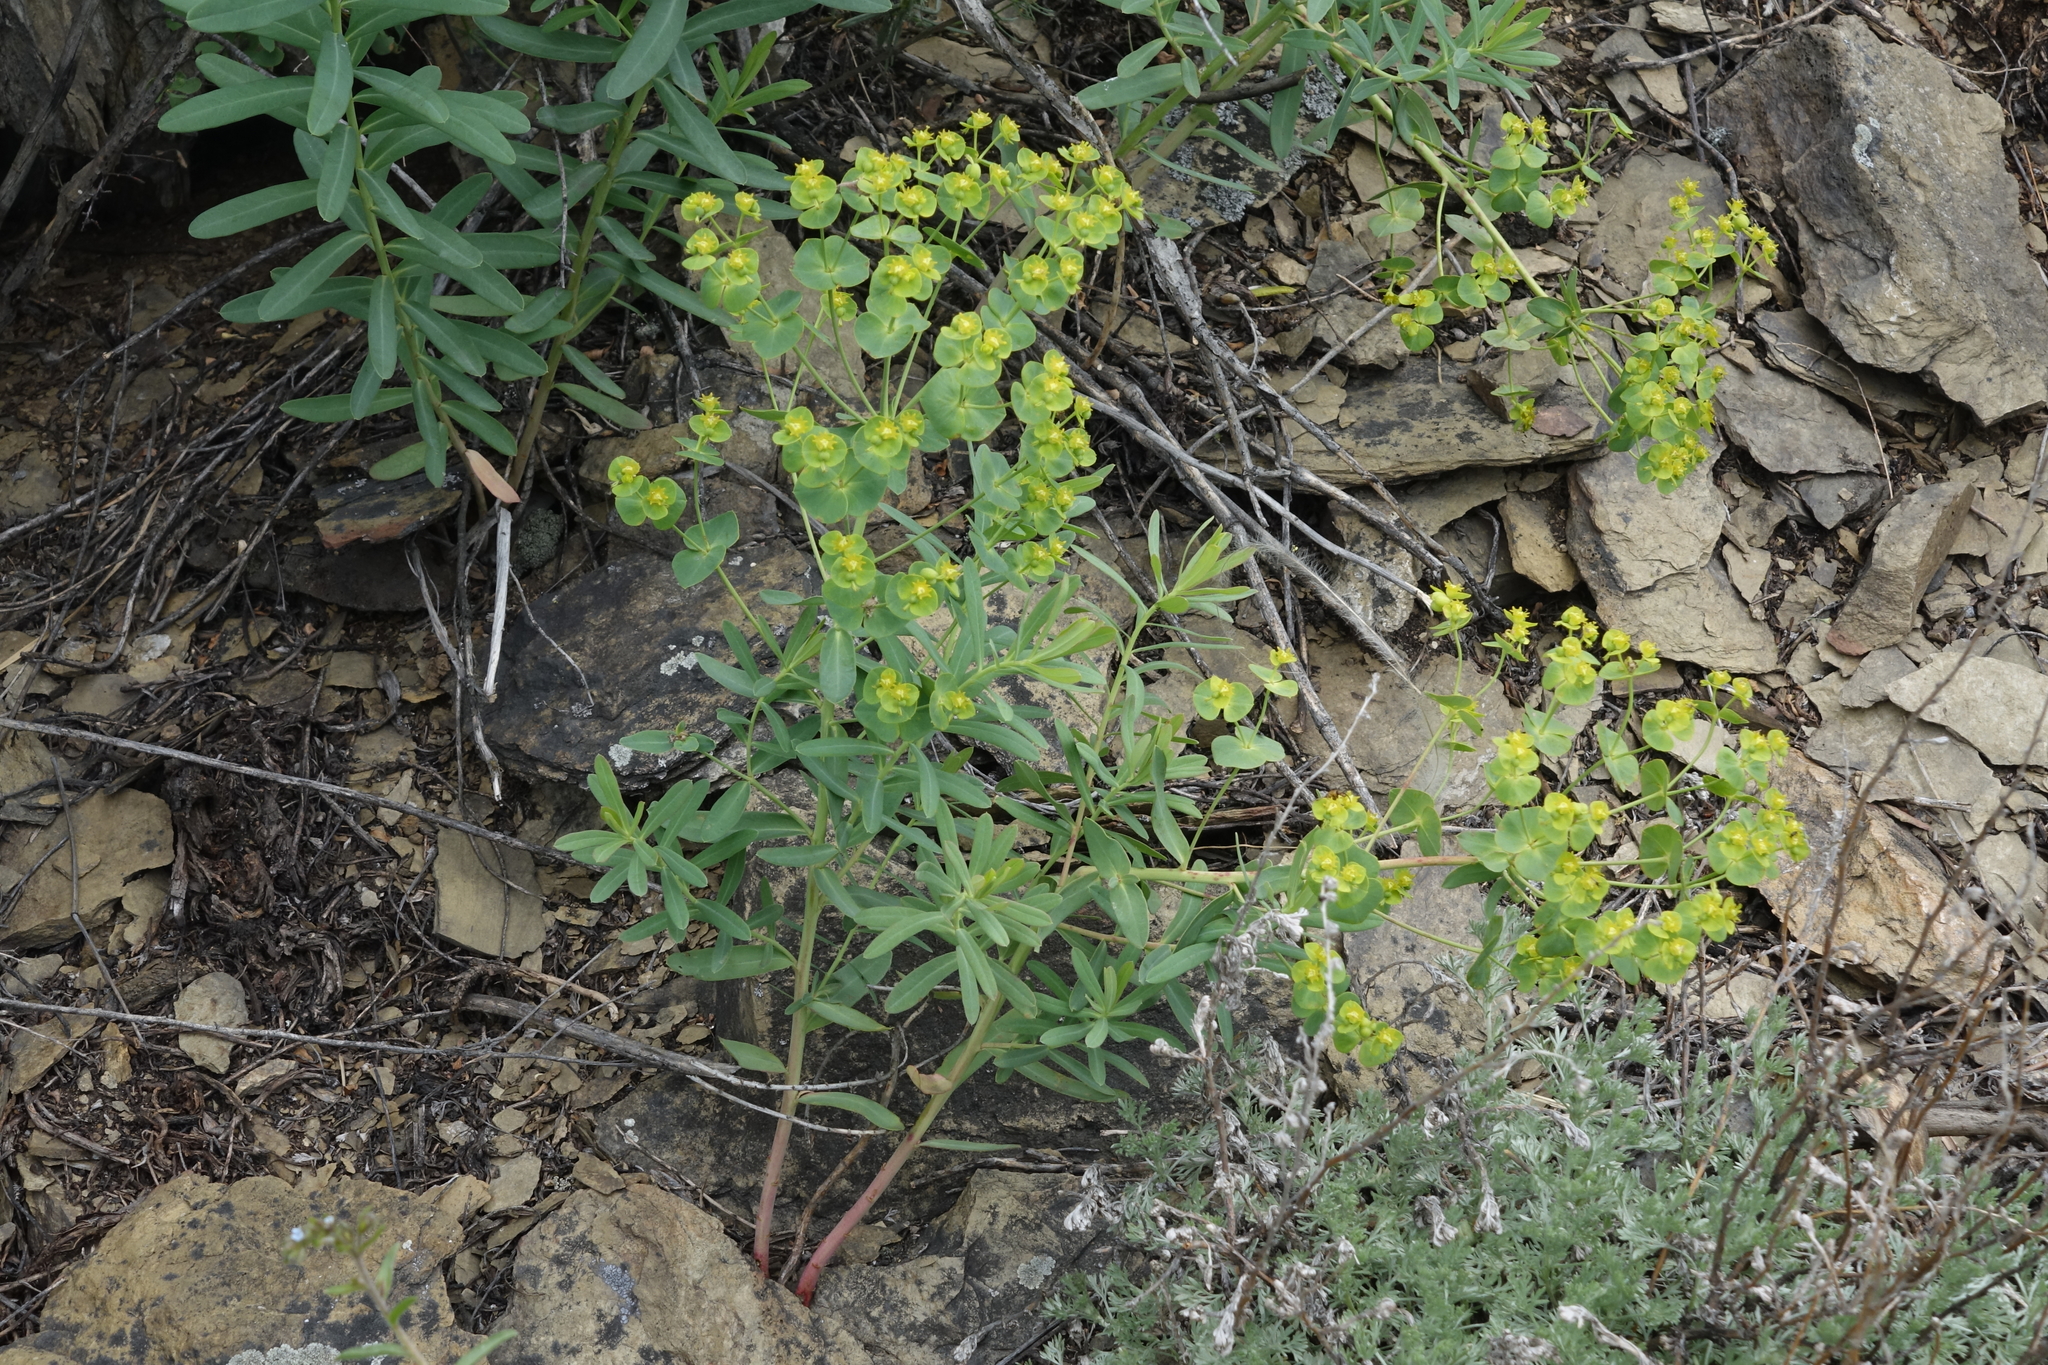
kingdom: Plantae
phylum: Tracheophyta
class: Magnoliopsida
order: Malpighiales
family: Euphorbiaceae
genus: Euphorbia
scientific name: Euphorbia virgata
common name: Leafy spurge
